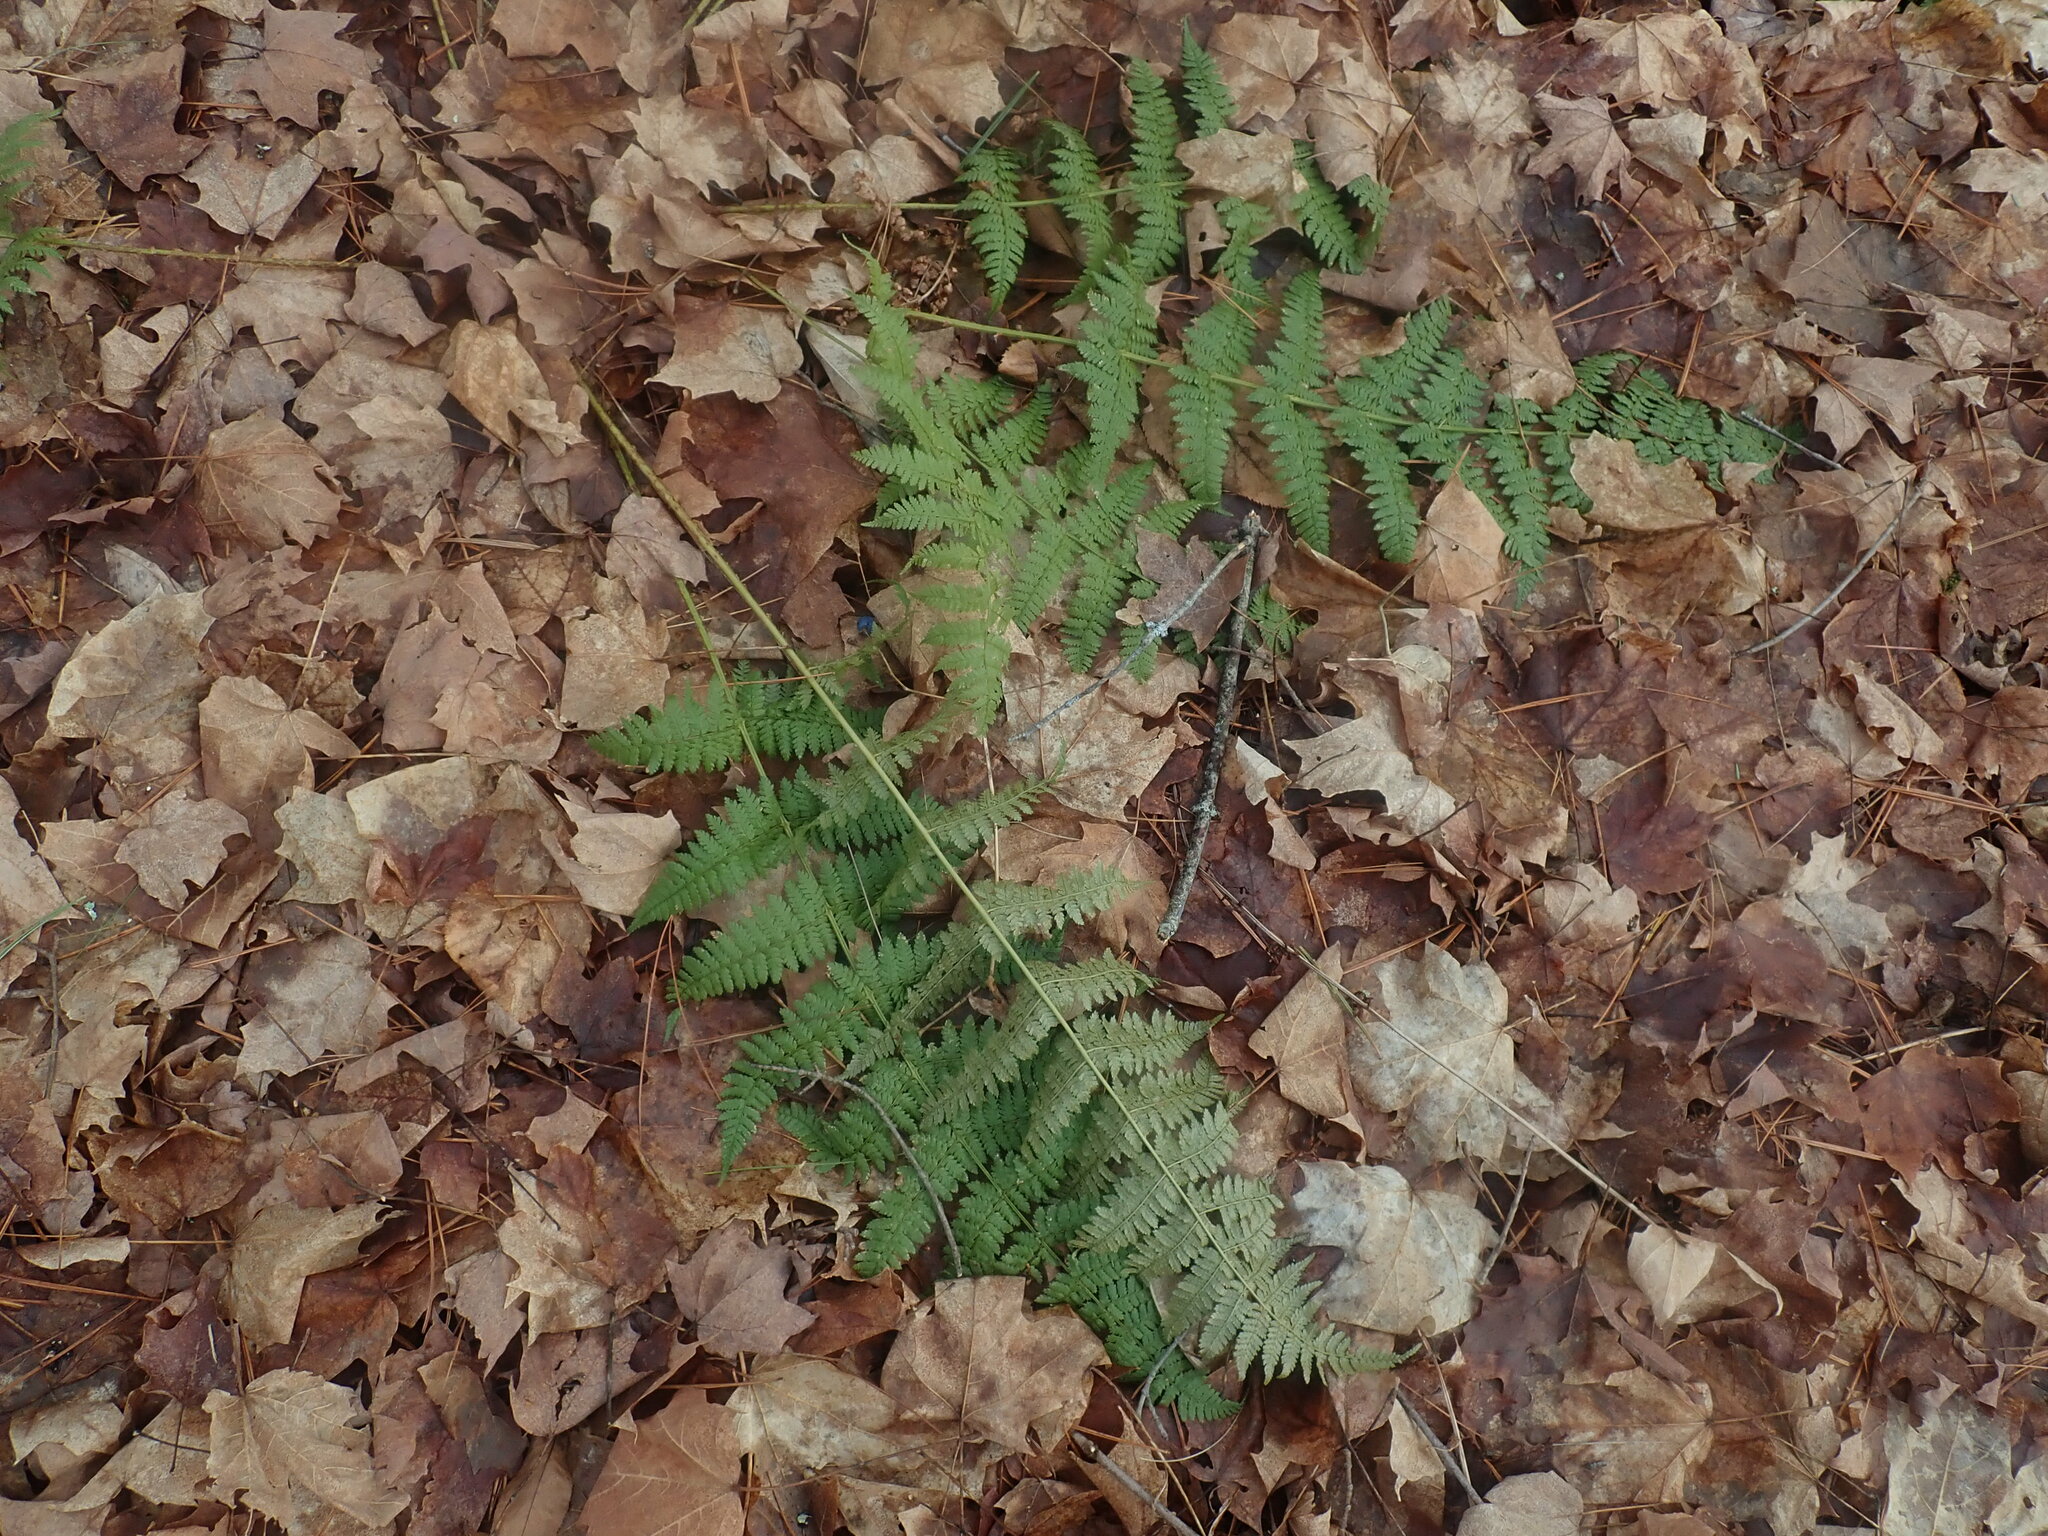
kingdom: Plantae
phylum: Tracheophyta
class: Polypodiopsida
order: Polypodiales
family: Dryopteridaceae
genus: Dryopteris
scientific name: Dryopteris intermedia
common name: Evergreen wood fern
